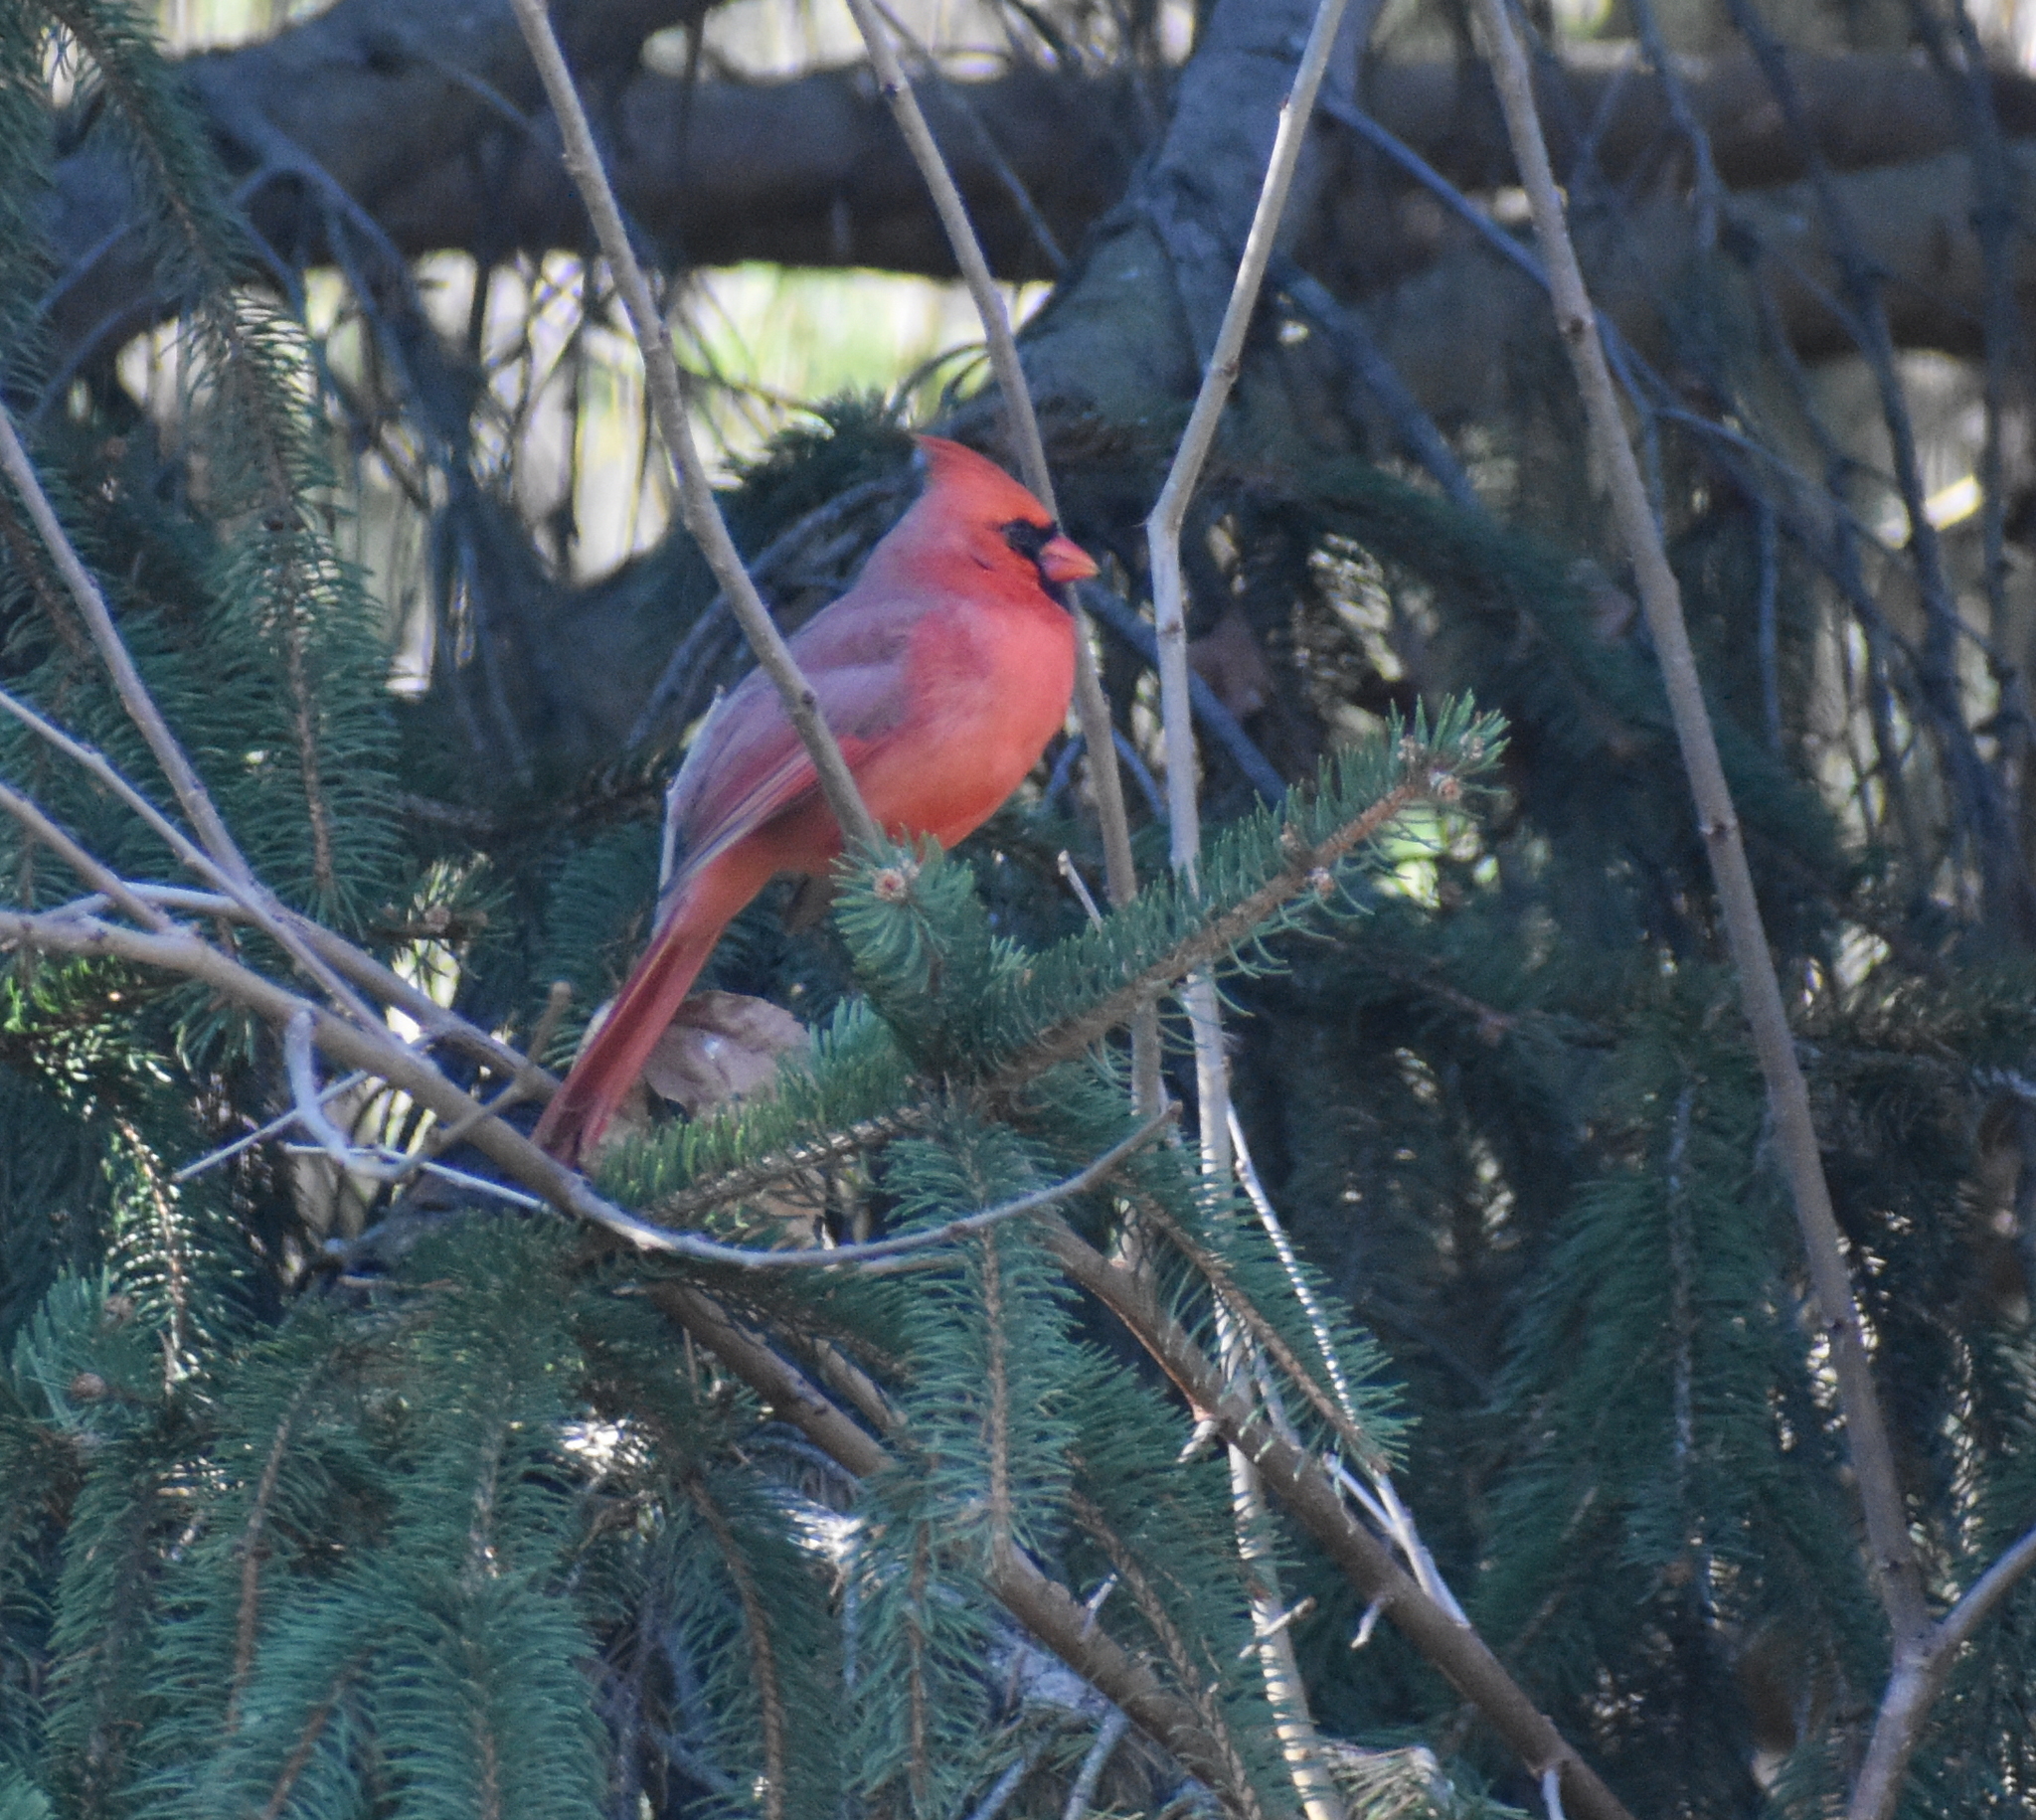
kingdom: Animalia
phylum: Chordata
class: Aves
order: Passeriformes
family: Cardinalidae
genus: Cardinalis
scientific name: Cardinalis cardinalis
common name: Northern cardinal
